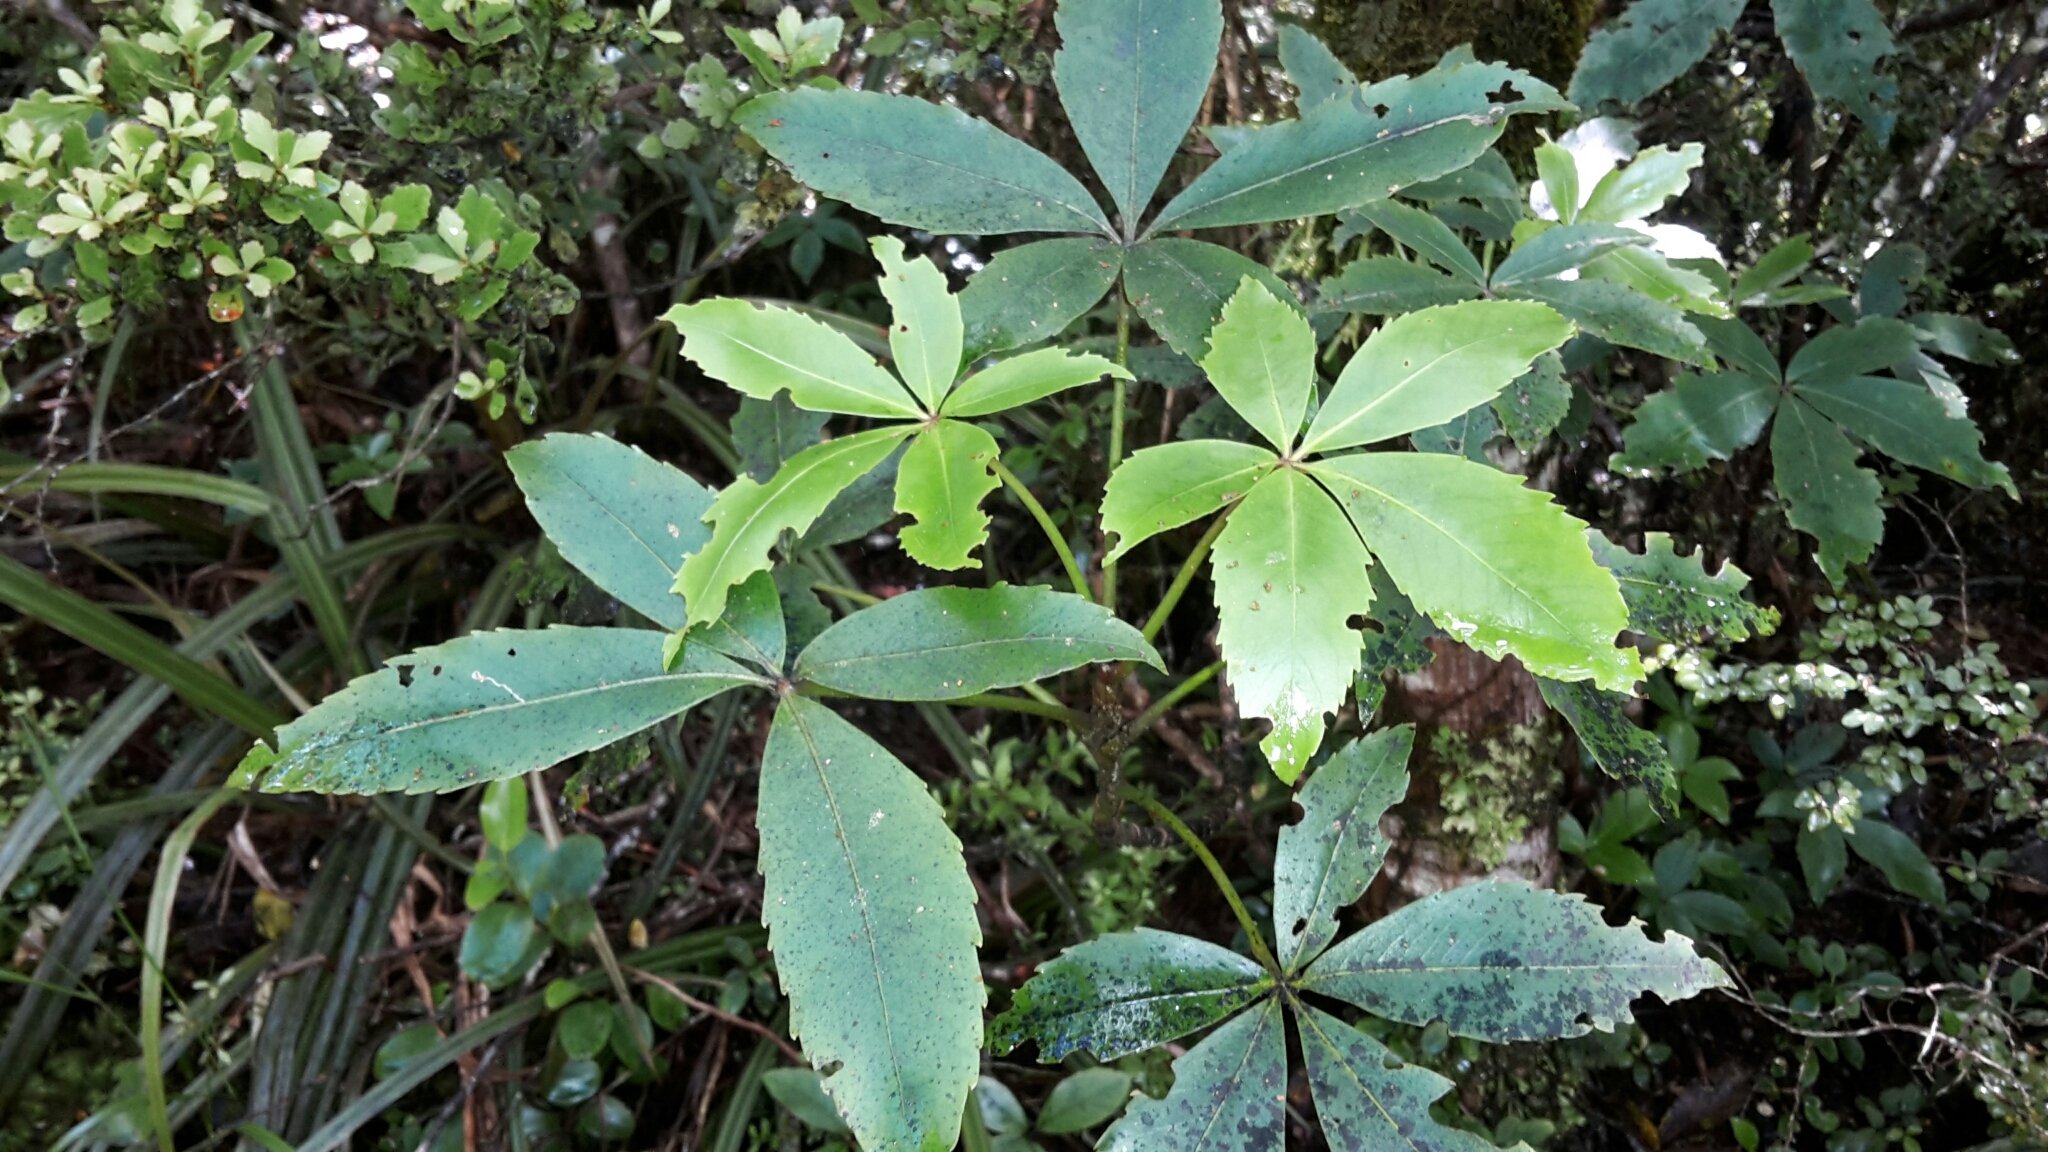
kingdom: Plantae
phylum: Tracheophyta
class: Magnoliopsida
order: Apiales
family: Araliaceae
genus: Neopanax
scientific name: Neopanax colensoi
